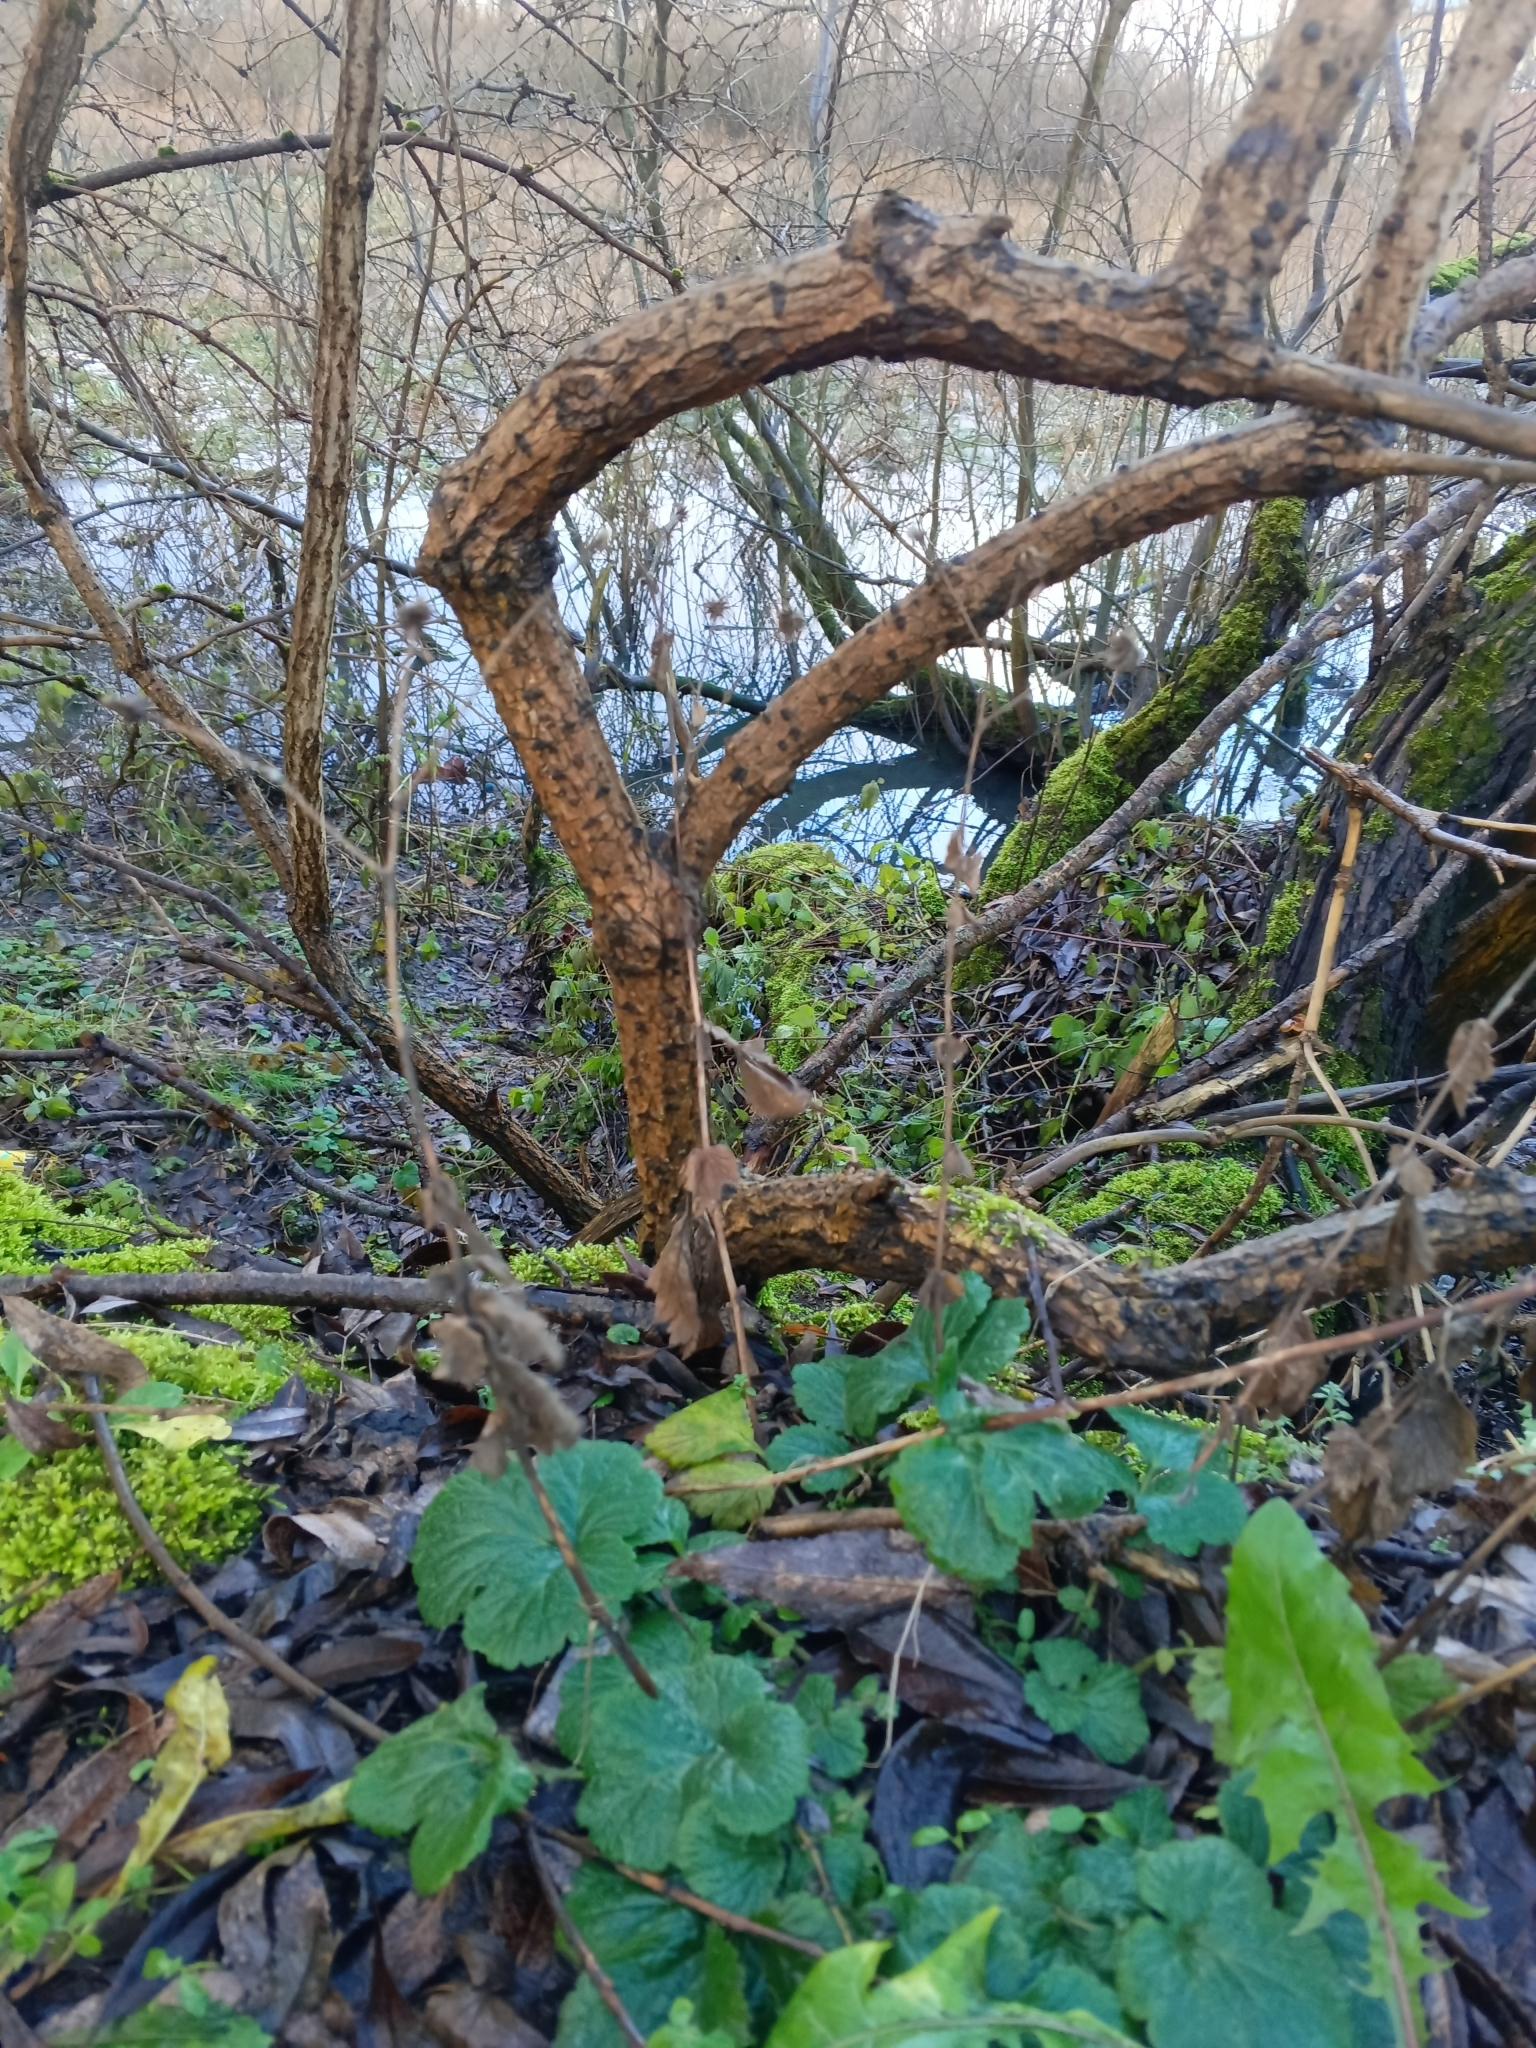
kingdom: Plantae
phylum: Tracheophyta
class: Magnoliopsida
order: Rosales
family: Rosaceae
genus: Geum
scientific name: Geum urbanum
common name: Wood avens
